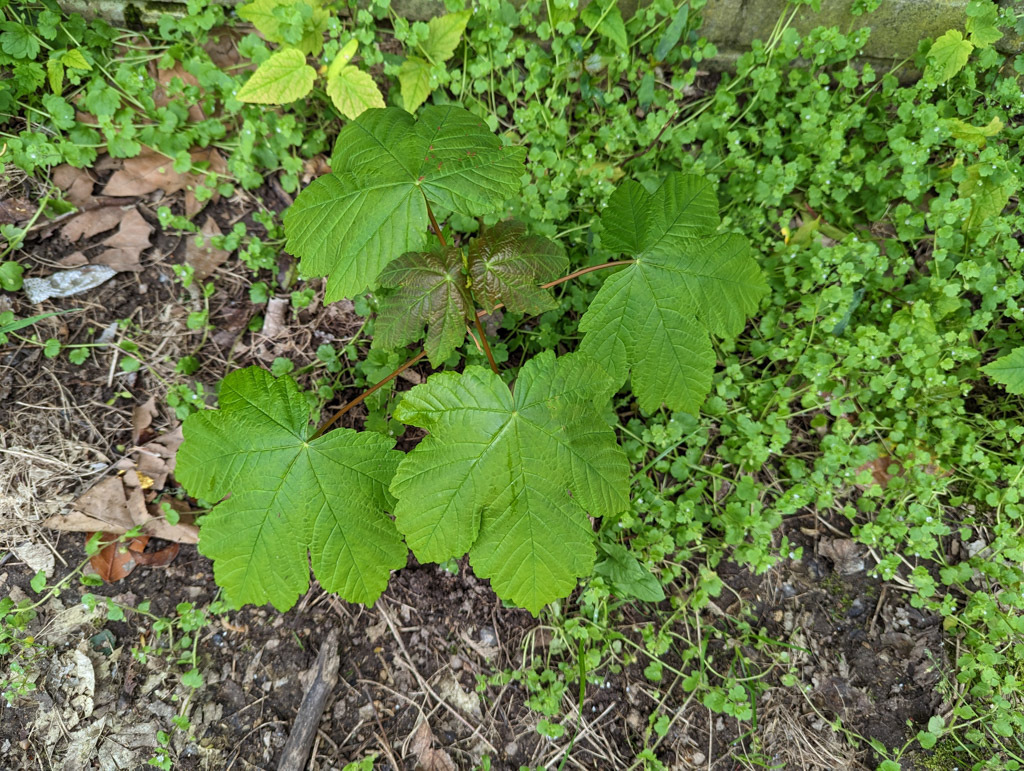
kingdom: Plantae
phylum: Tracheophyta
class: Magnoliopsida
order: Sapindales
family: Sapindaceae
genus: Acer
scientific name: Acer pseudoplatanus
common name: Sycamore
